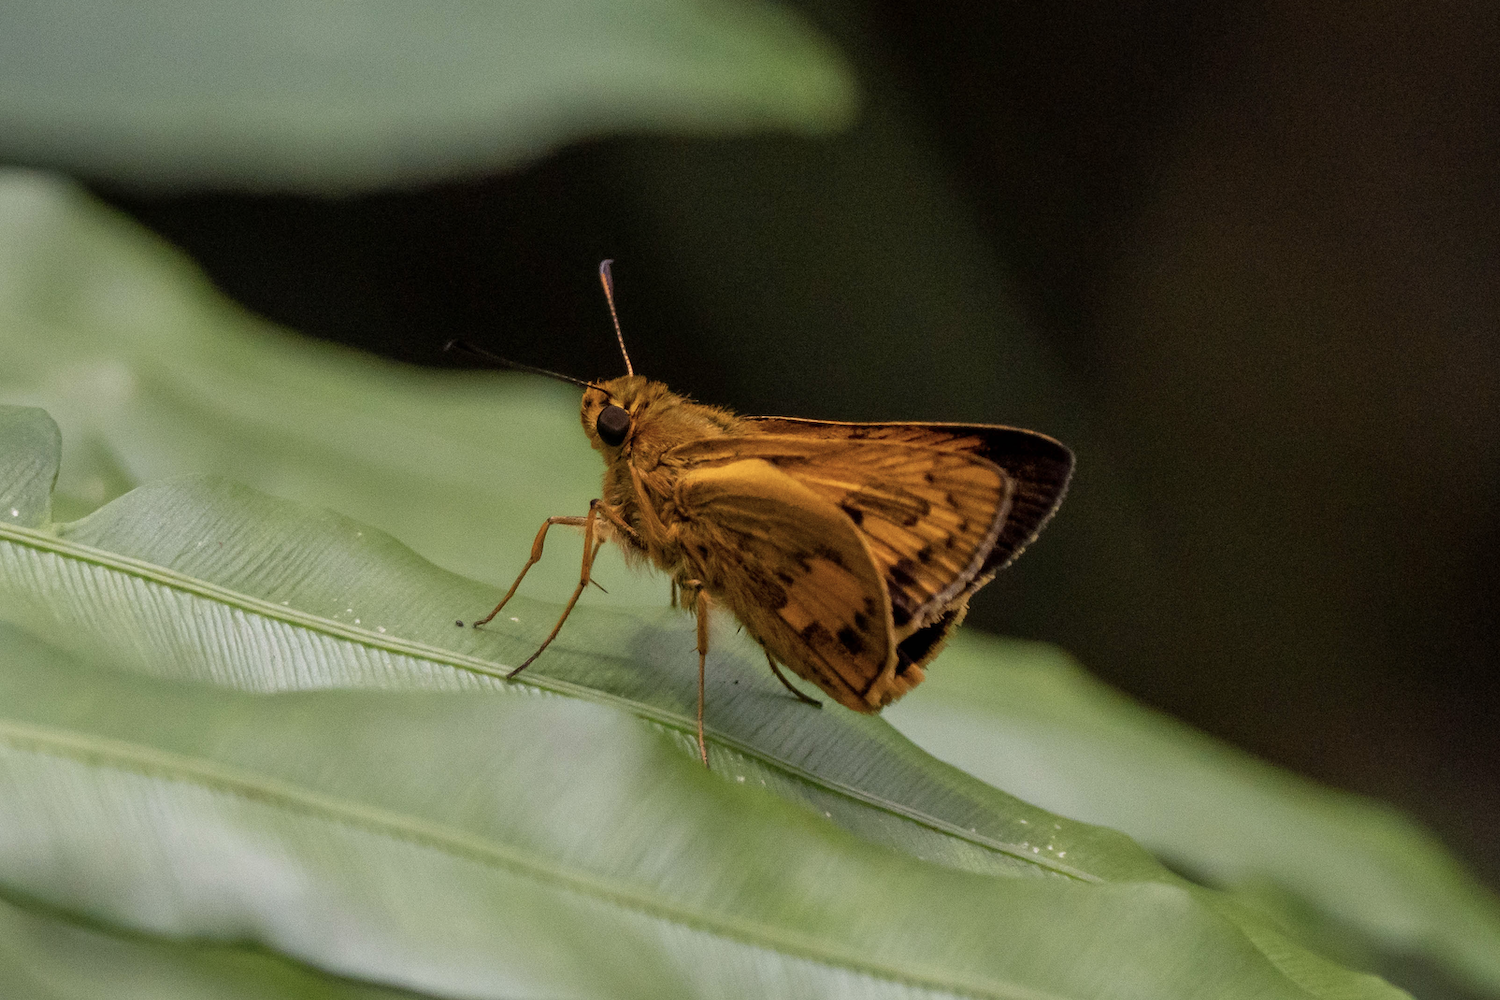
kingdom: Animalia
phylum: Arthropoda
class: Insecta
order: Lepidoptera
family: Hesperiidae
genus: Telicota
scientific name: Telicota ohara
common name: Dark palm dart
